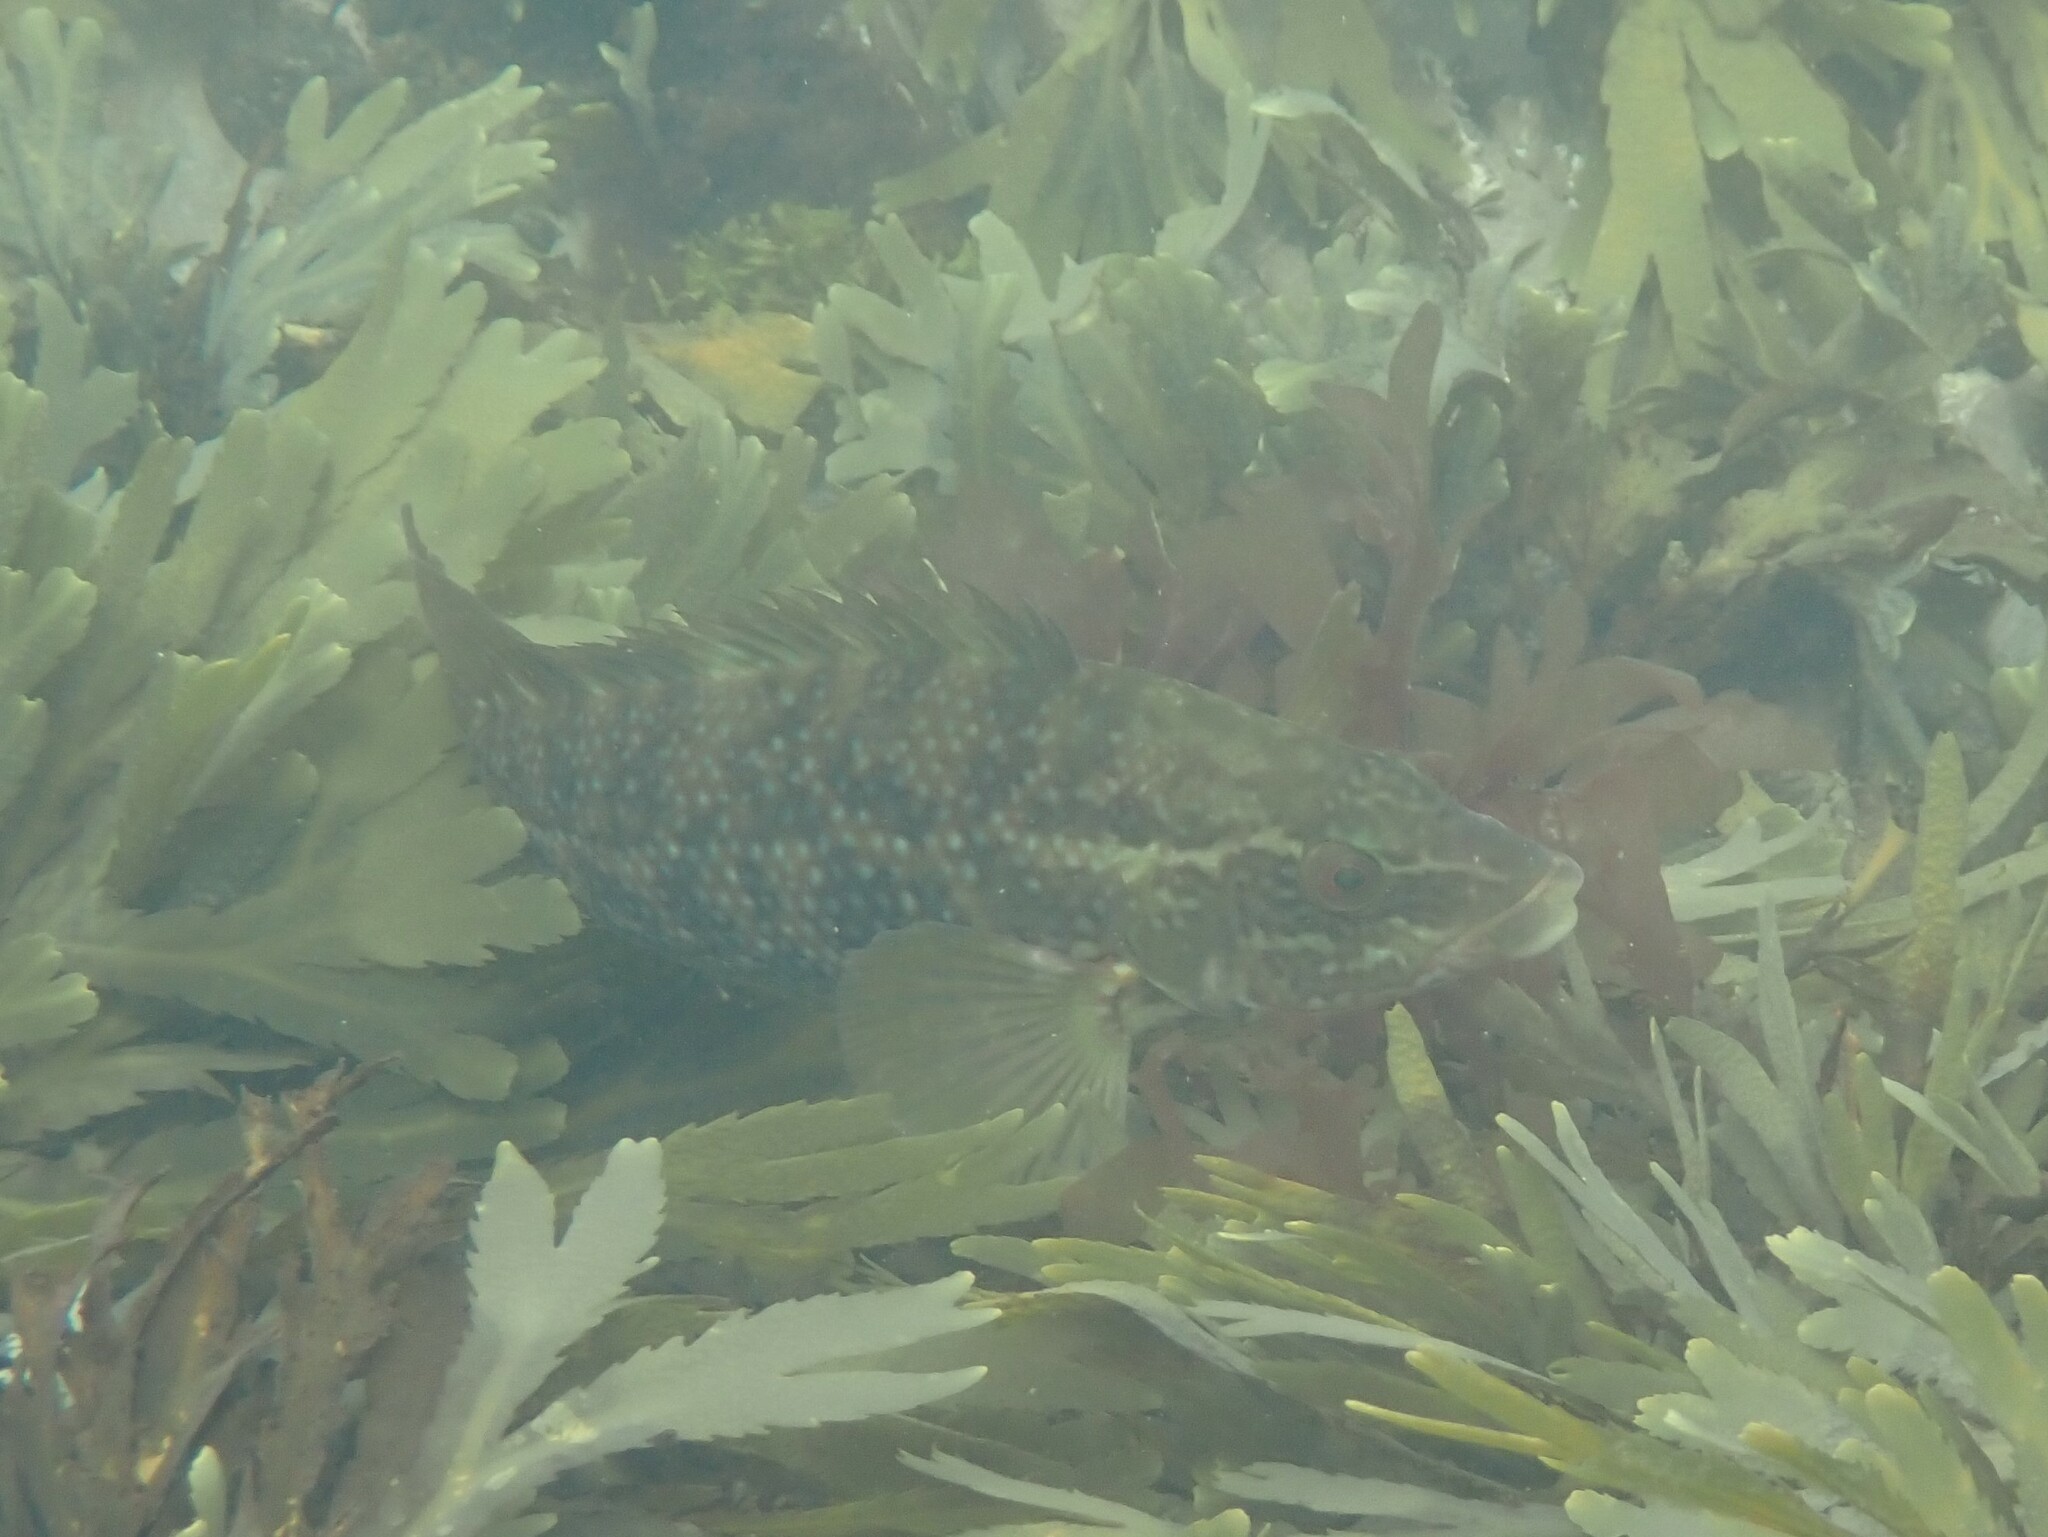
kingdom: Animalia
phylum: Chordata
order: Perciformes
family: Labridae
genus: Labrus
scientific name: Labrus bergylta
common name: Ballan wrasse
